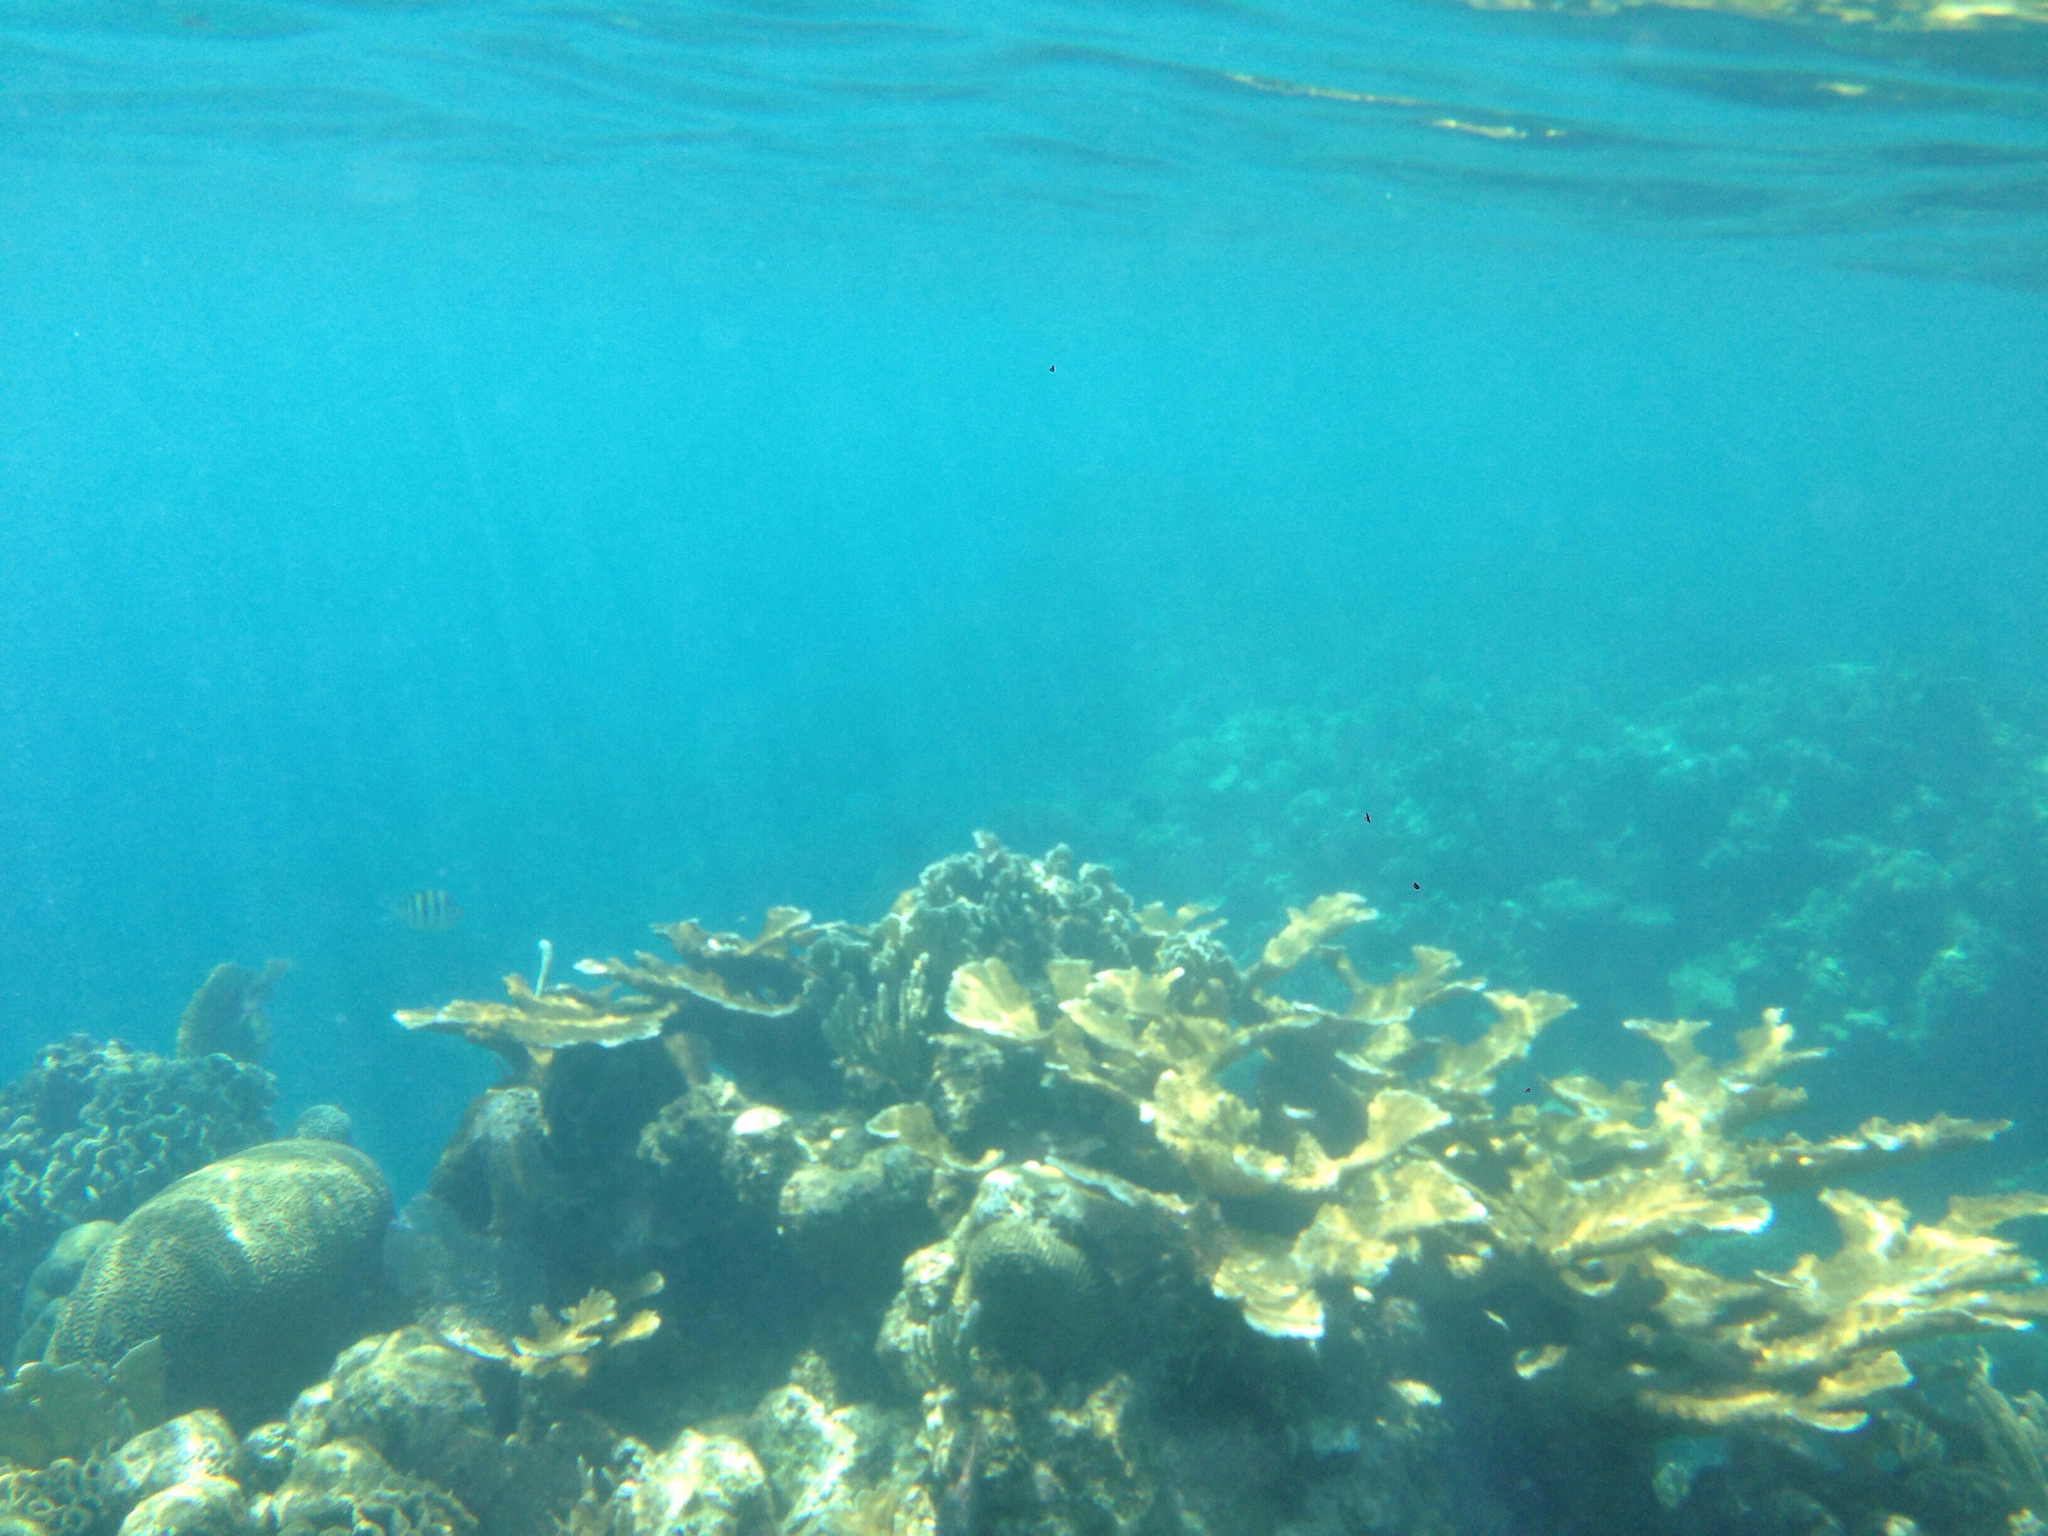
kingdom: Animalia
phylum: Cnidaria
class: Anthozoa
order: Scleractinia
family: Acroporidae
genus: Acropora
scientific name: Acropora palmata
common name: Elkhorn coral
